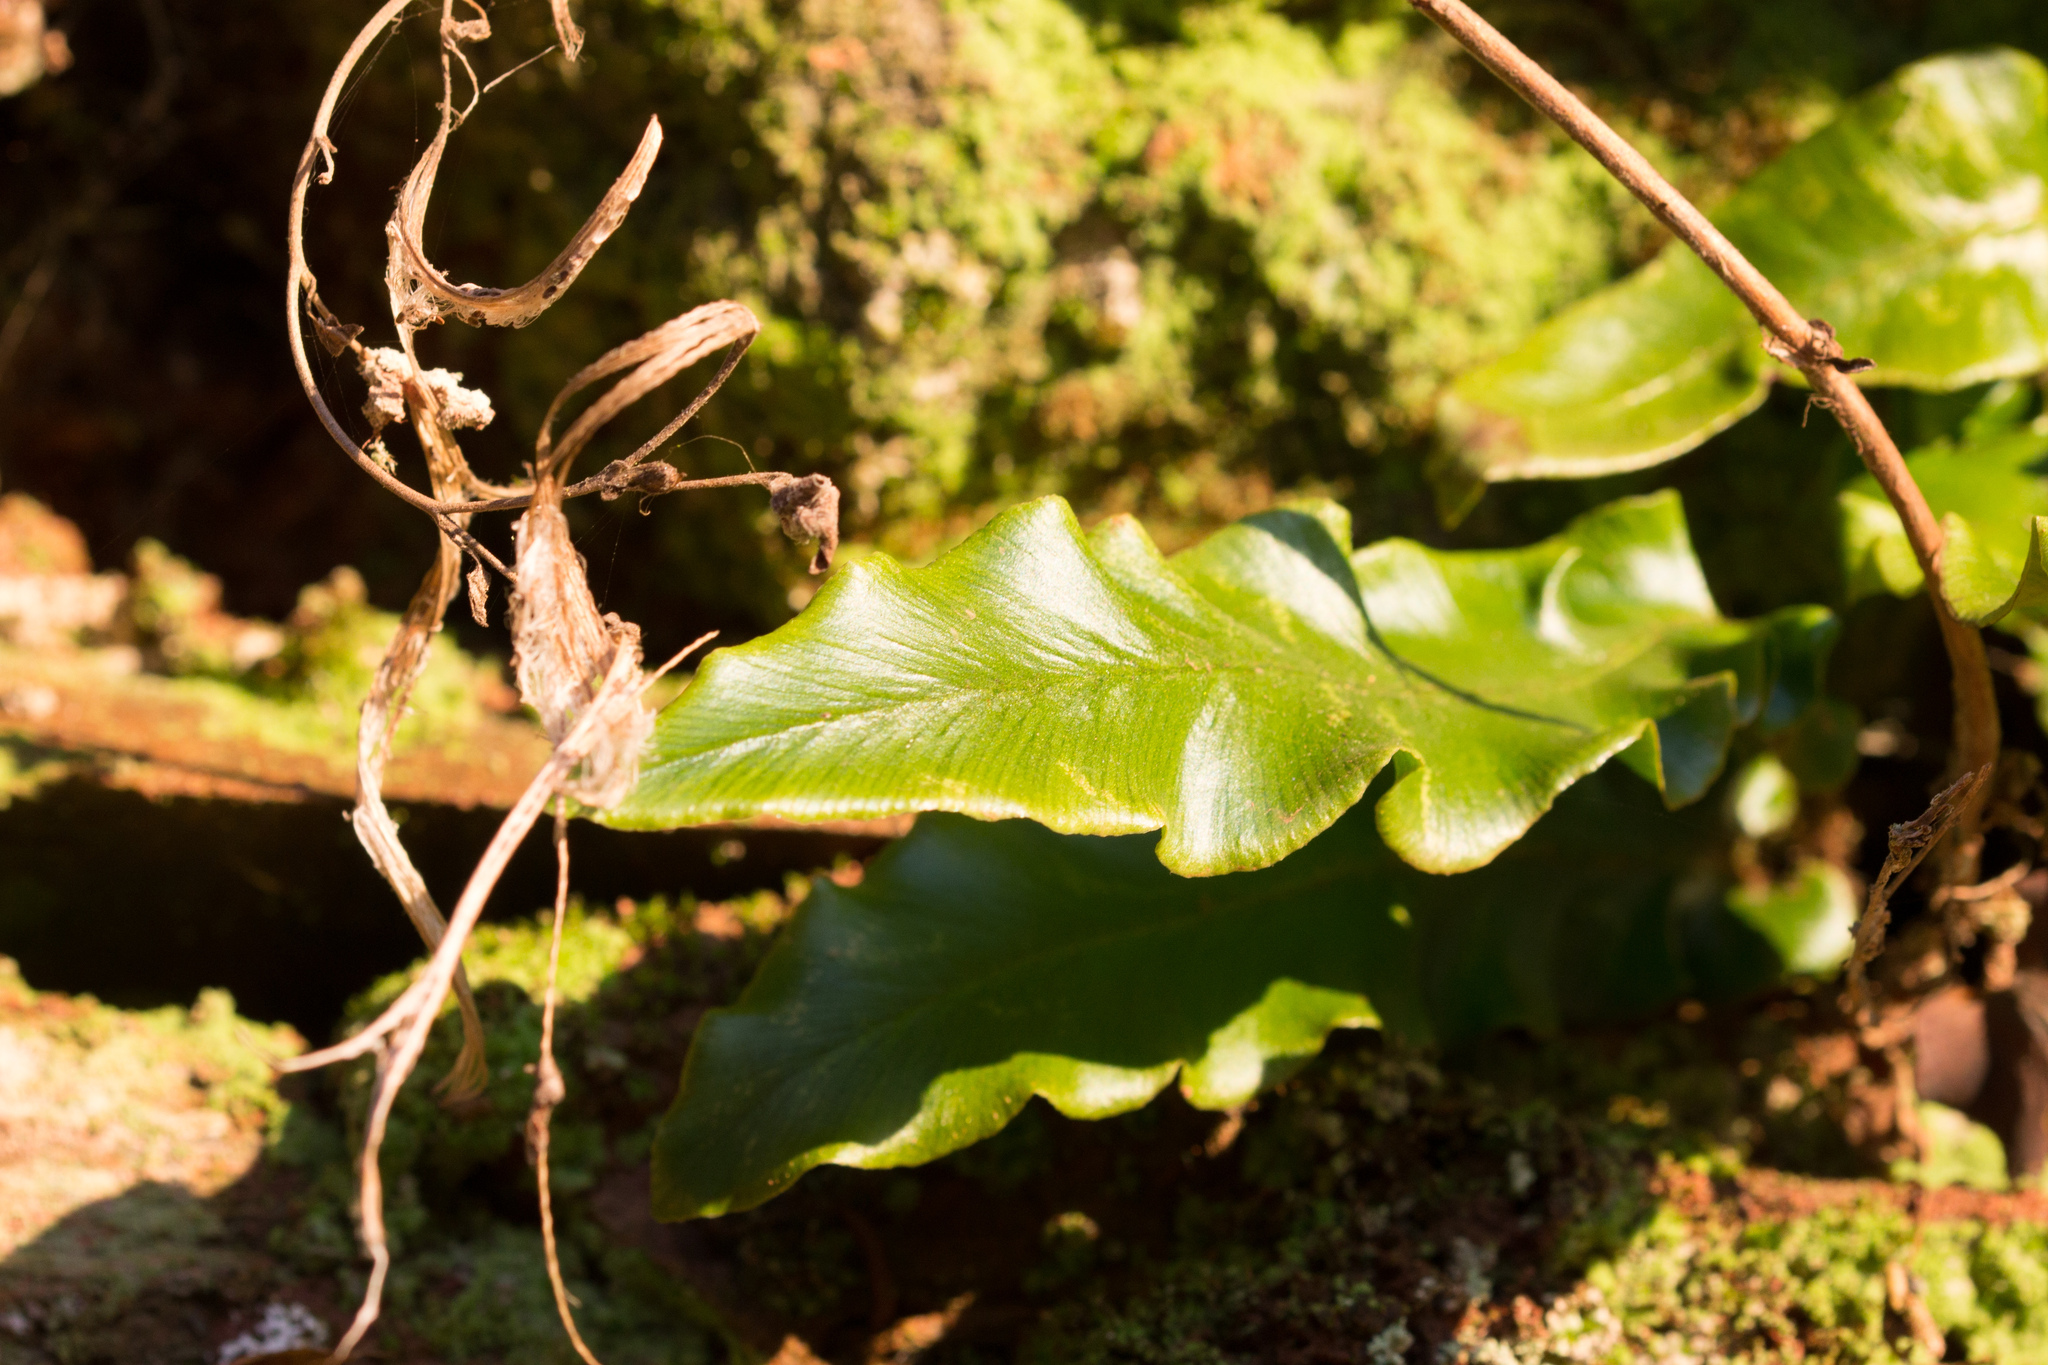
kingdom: Plantae
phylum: Tracheophyta
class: Polypodiopsida
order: Polypodiales
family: Aspleniaceae
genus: Asplenium
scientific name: Asplenium scolopendrium
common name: Hart's-tongue fern
